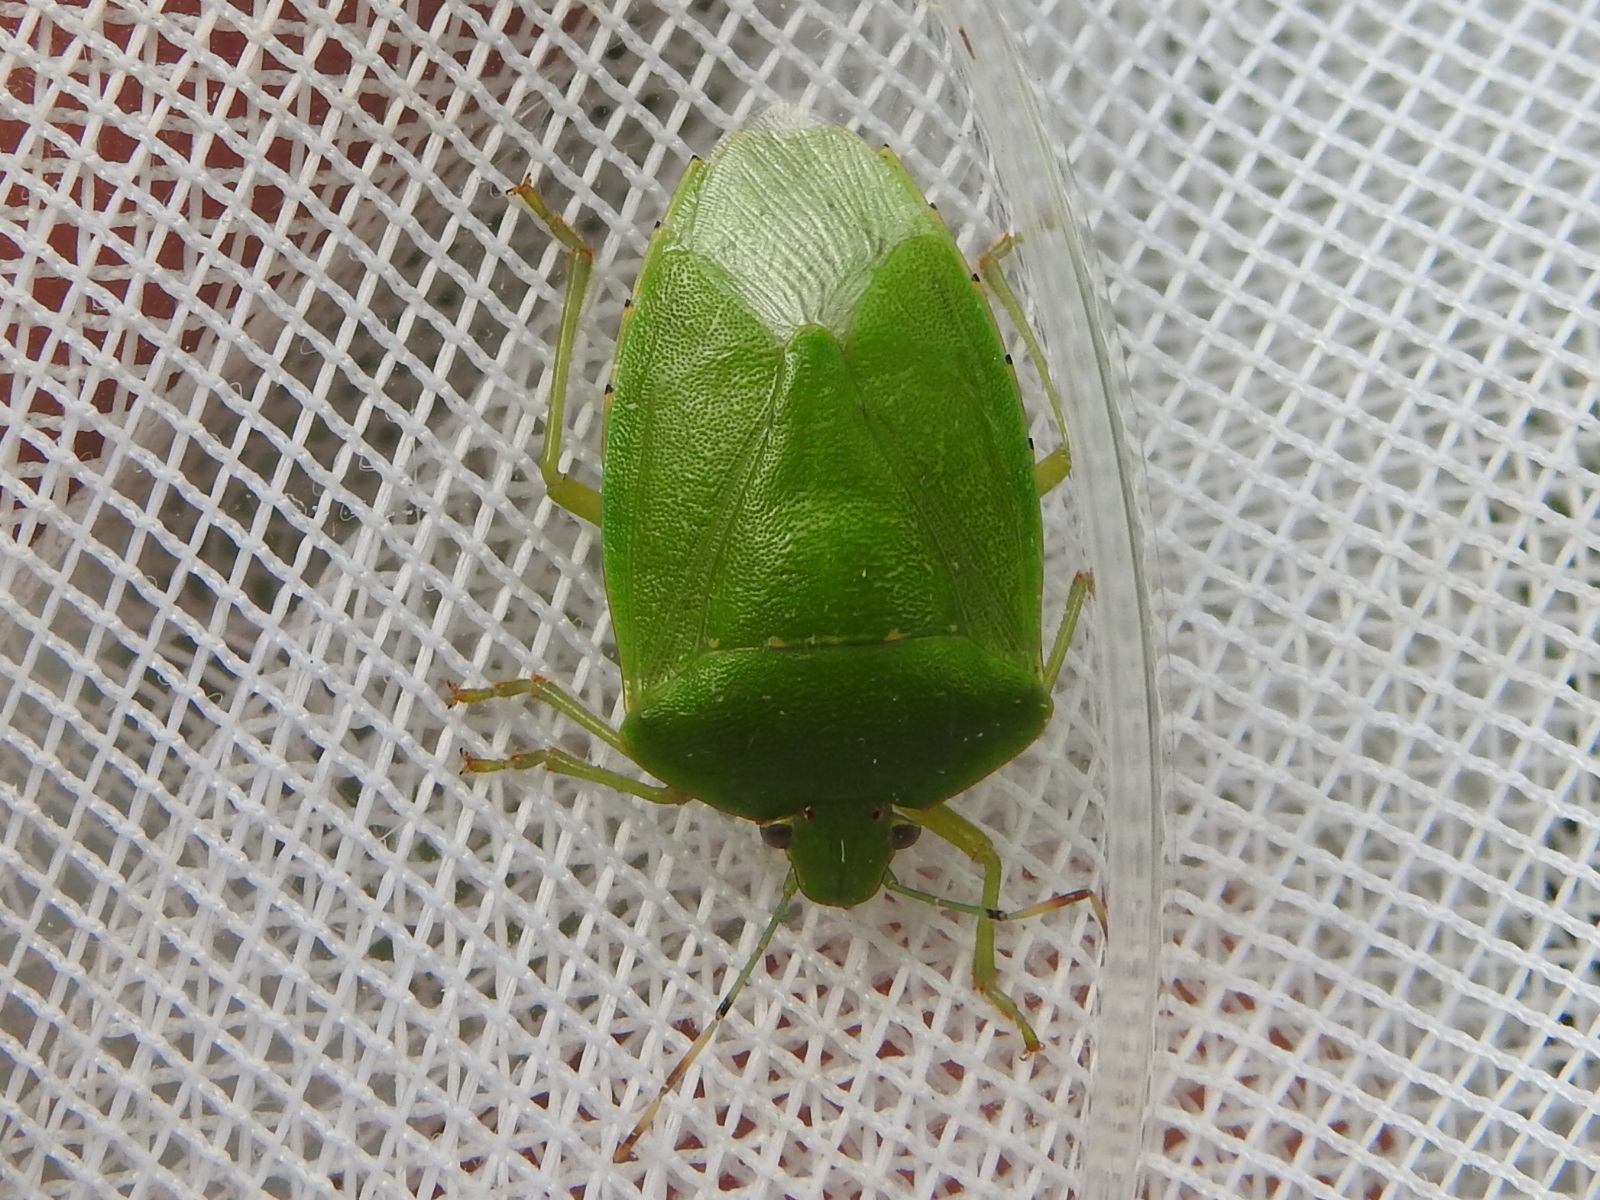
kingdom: Animalia
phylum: Arthropoda
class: Insecta
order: Hemiptera
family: Pentatomidae
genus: Chinavia
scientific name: Chinavia hilaris
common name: Green stink bug
